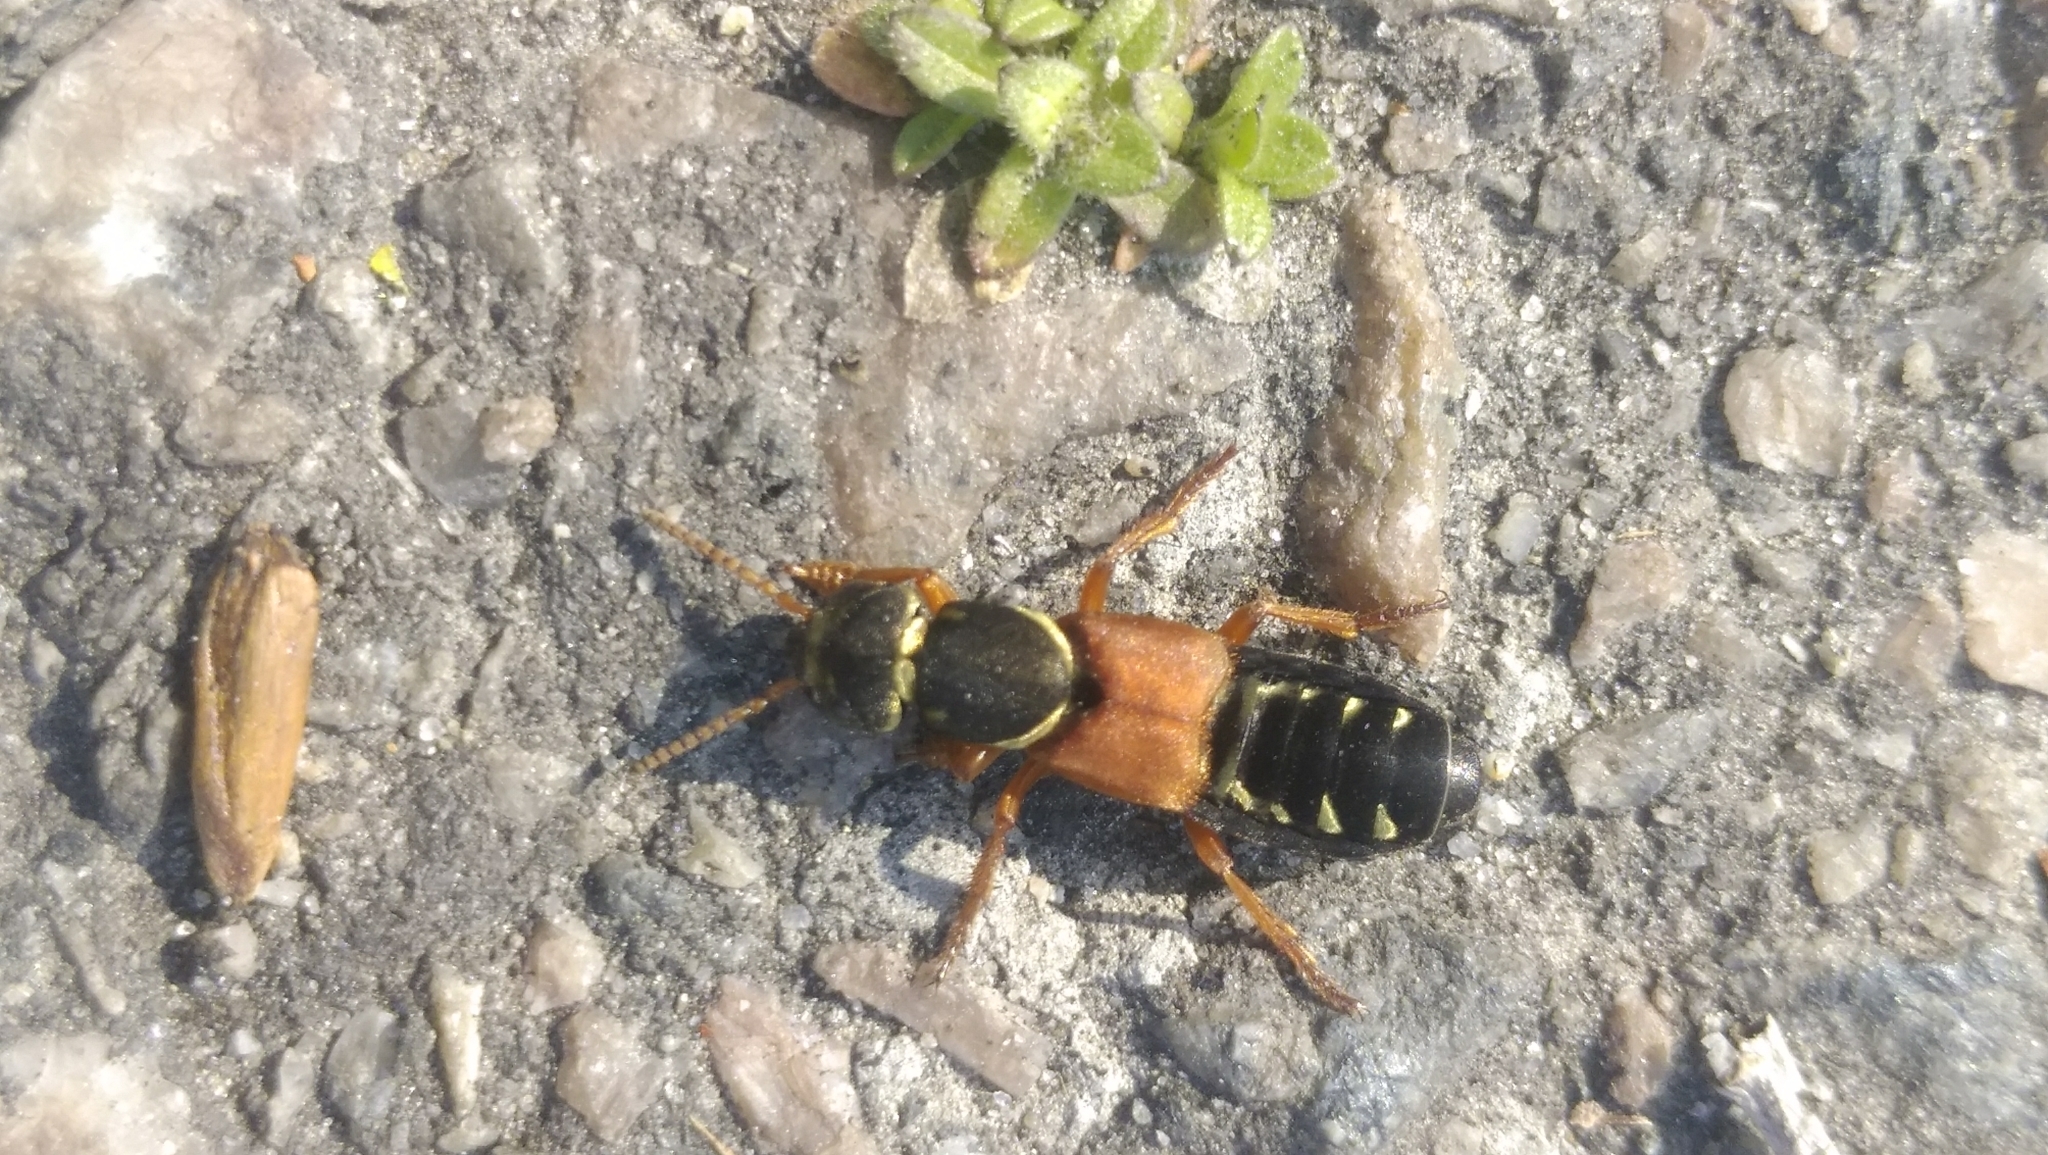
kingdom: Animalia
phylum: Arthropoda
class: Insecta
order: Coleoptera
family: Staphylinidae
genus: Staphylinus
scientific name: Staphylinus caesareus
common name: Staph beetle
